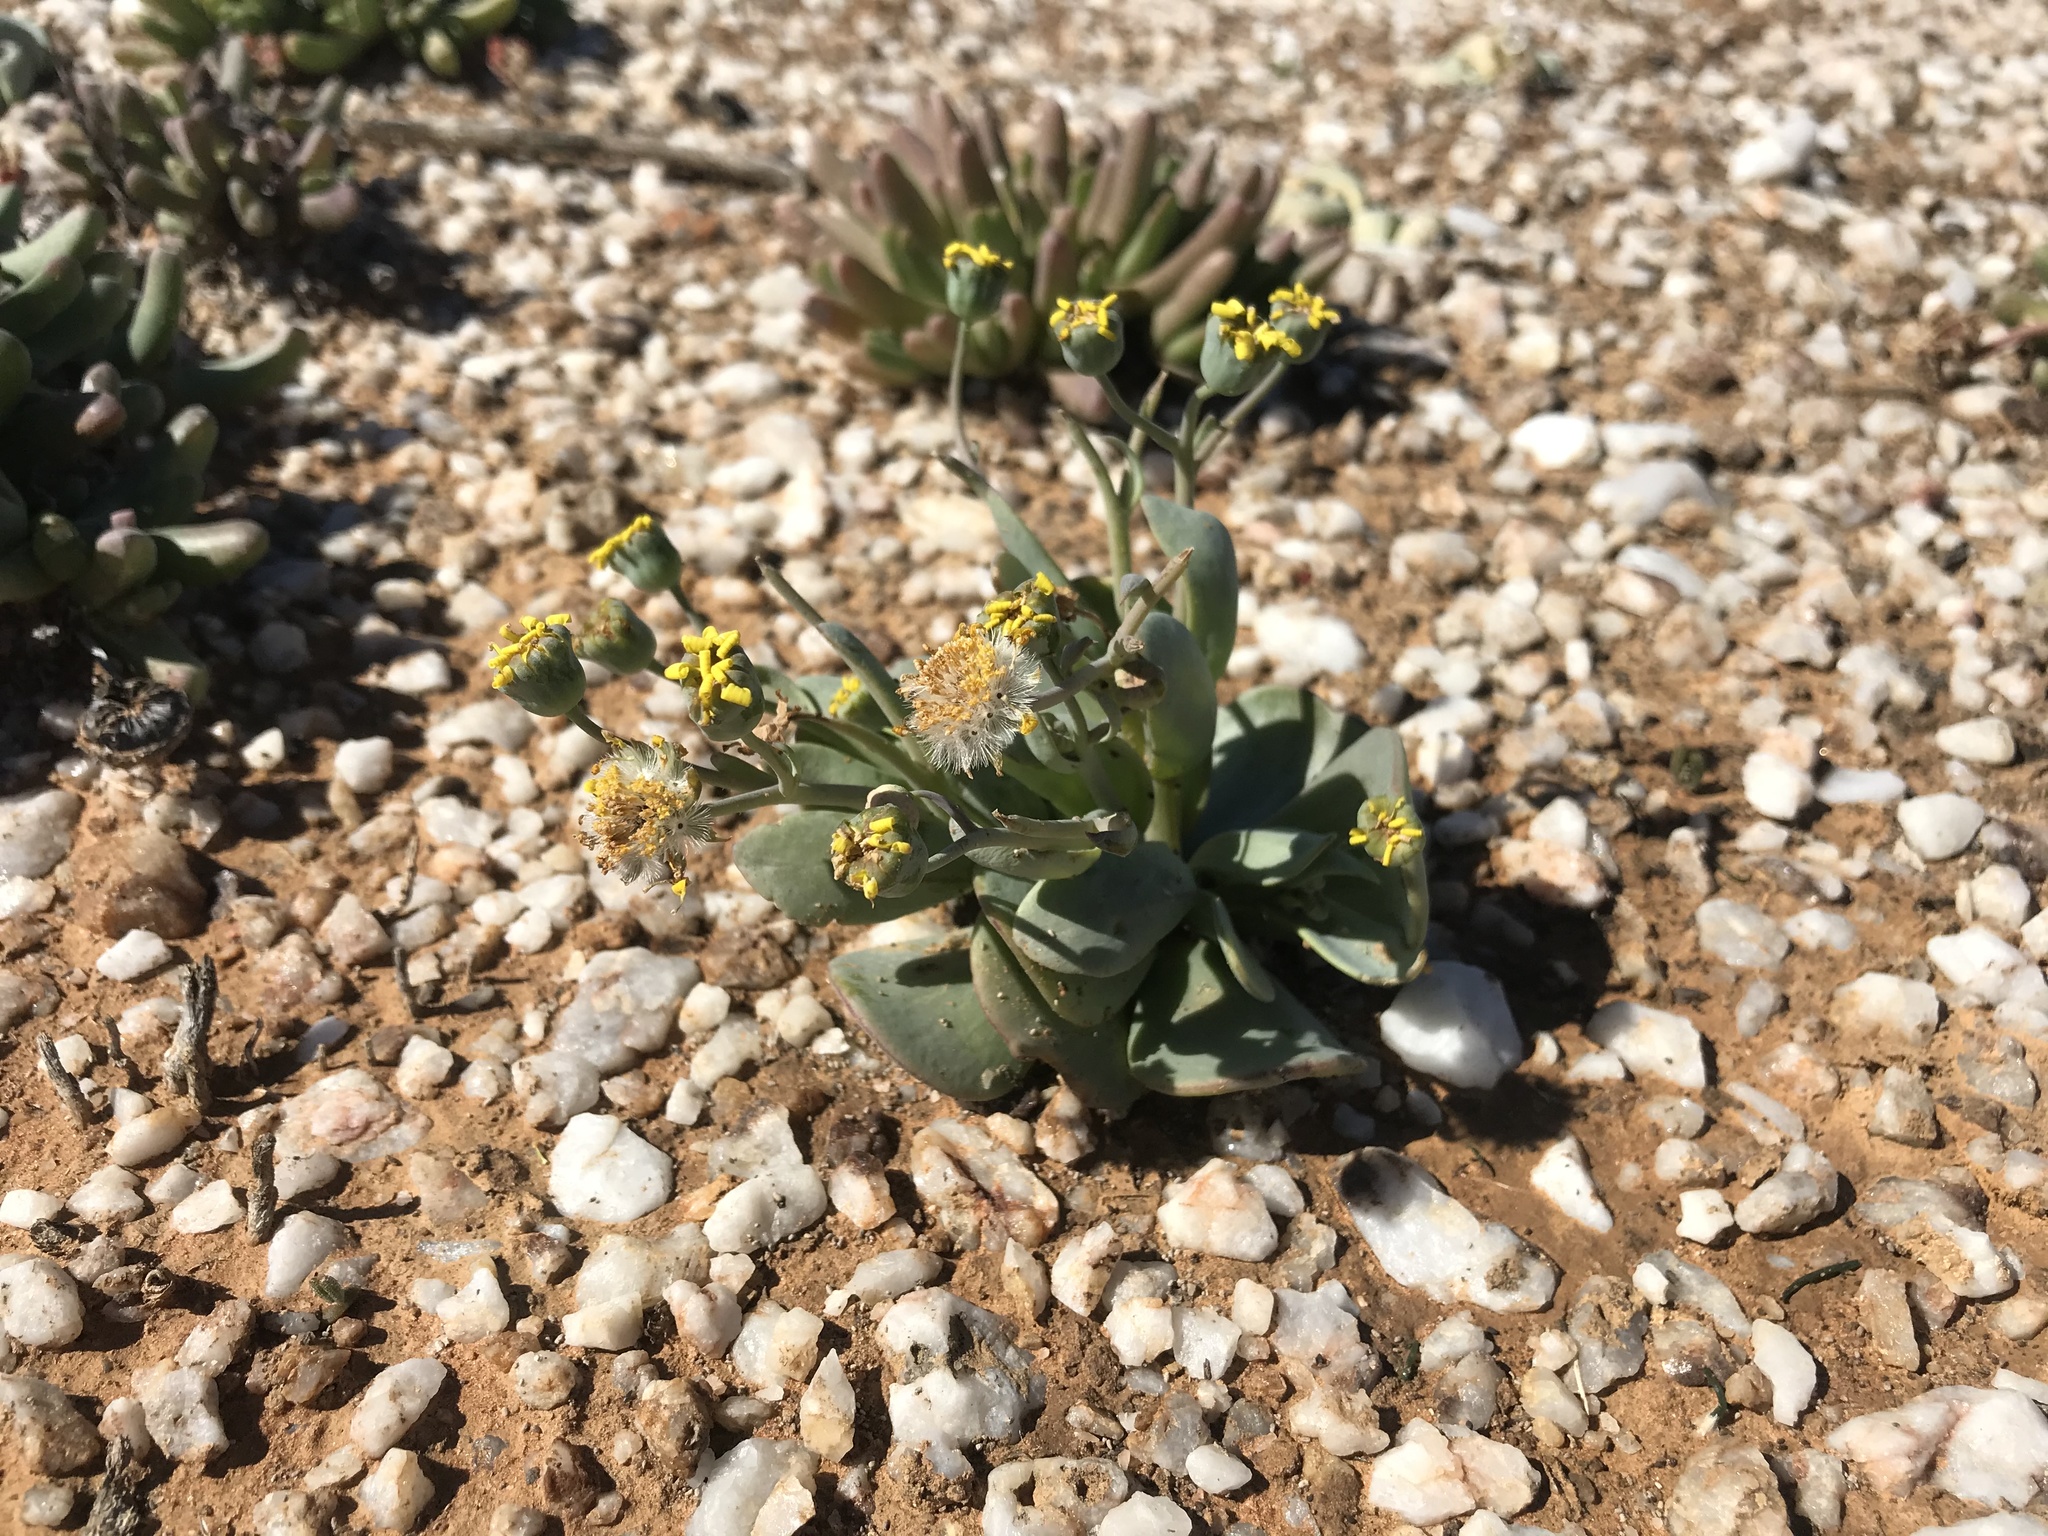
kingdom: Plantae
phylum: Tracheophyta
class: Magnoliopsida
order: Asterales
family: Asteraceae
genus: Othonna
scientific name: Othonna intermedia
